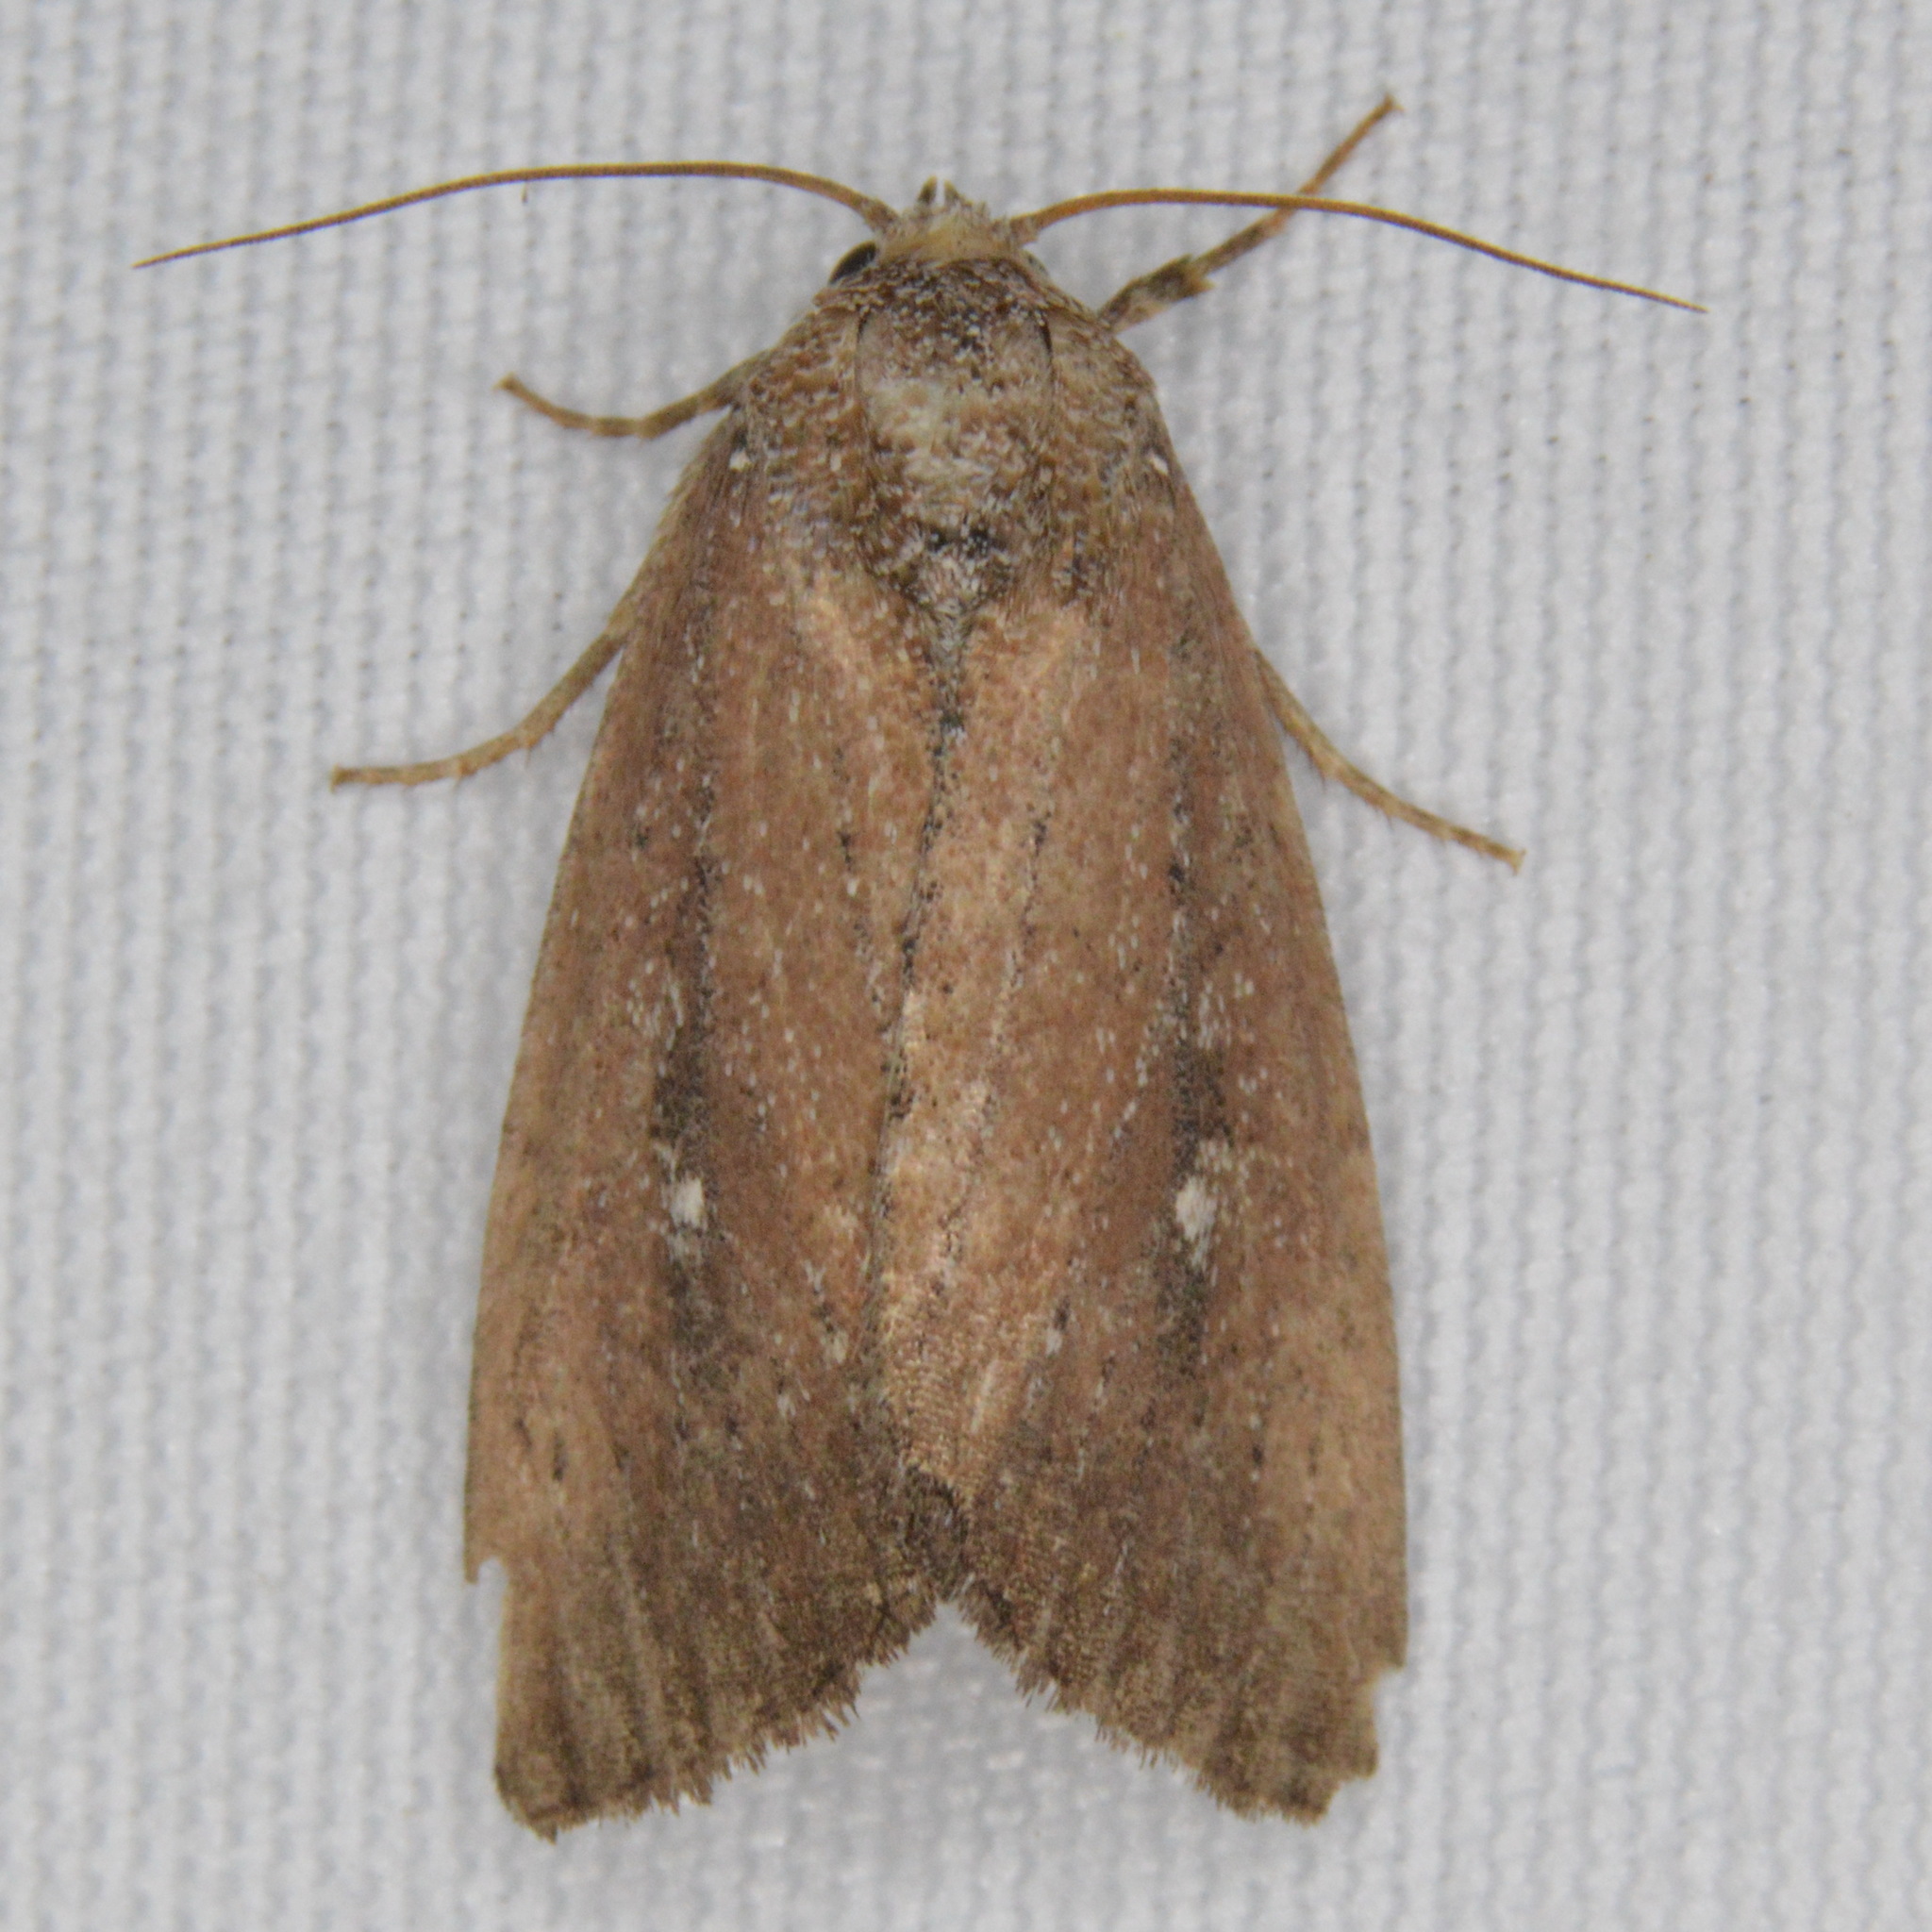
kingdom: Animalia
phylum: Arthropoda
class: Insecta
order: Lepidoptera
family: Noctuidae
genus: Condica
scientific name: Condica videns
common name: White-dotted groundling
